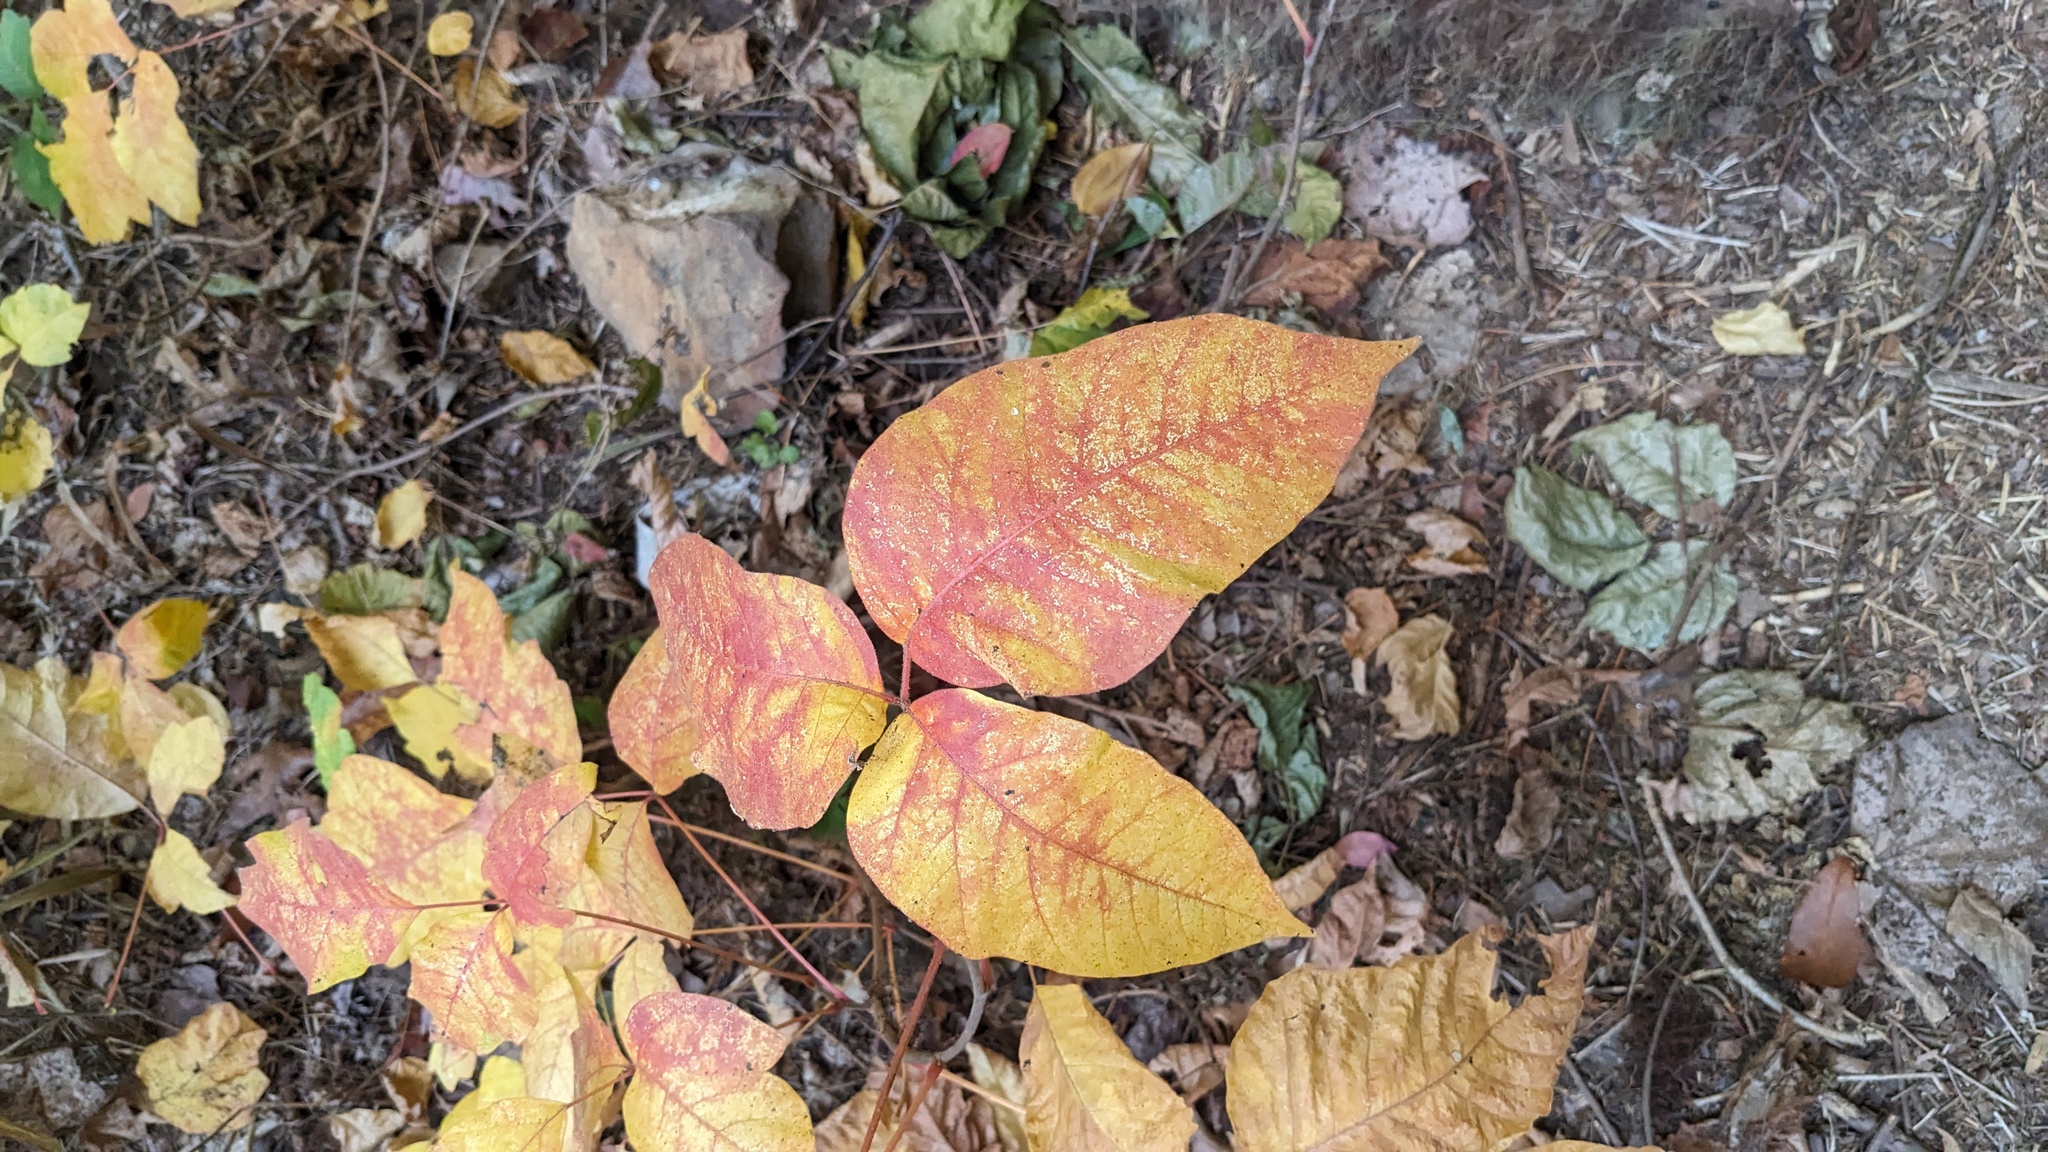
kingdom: Plantae
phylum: Tracheophyta
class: Magnoliopsida
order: Sapindales
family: Anacardiaceae
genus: Toxicodendron
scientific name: Toxicodendron radicans
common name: Poison ivy
